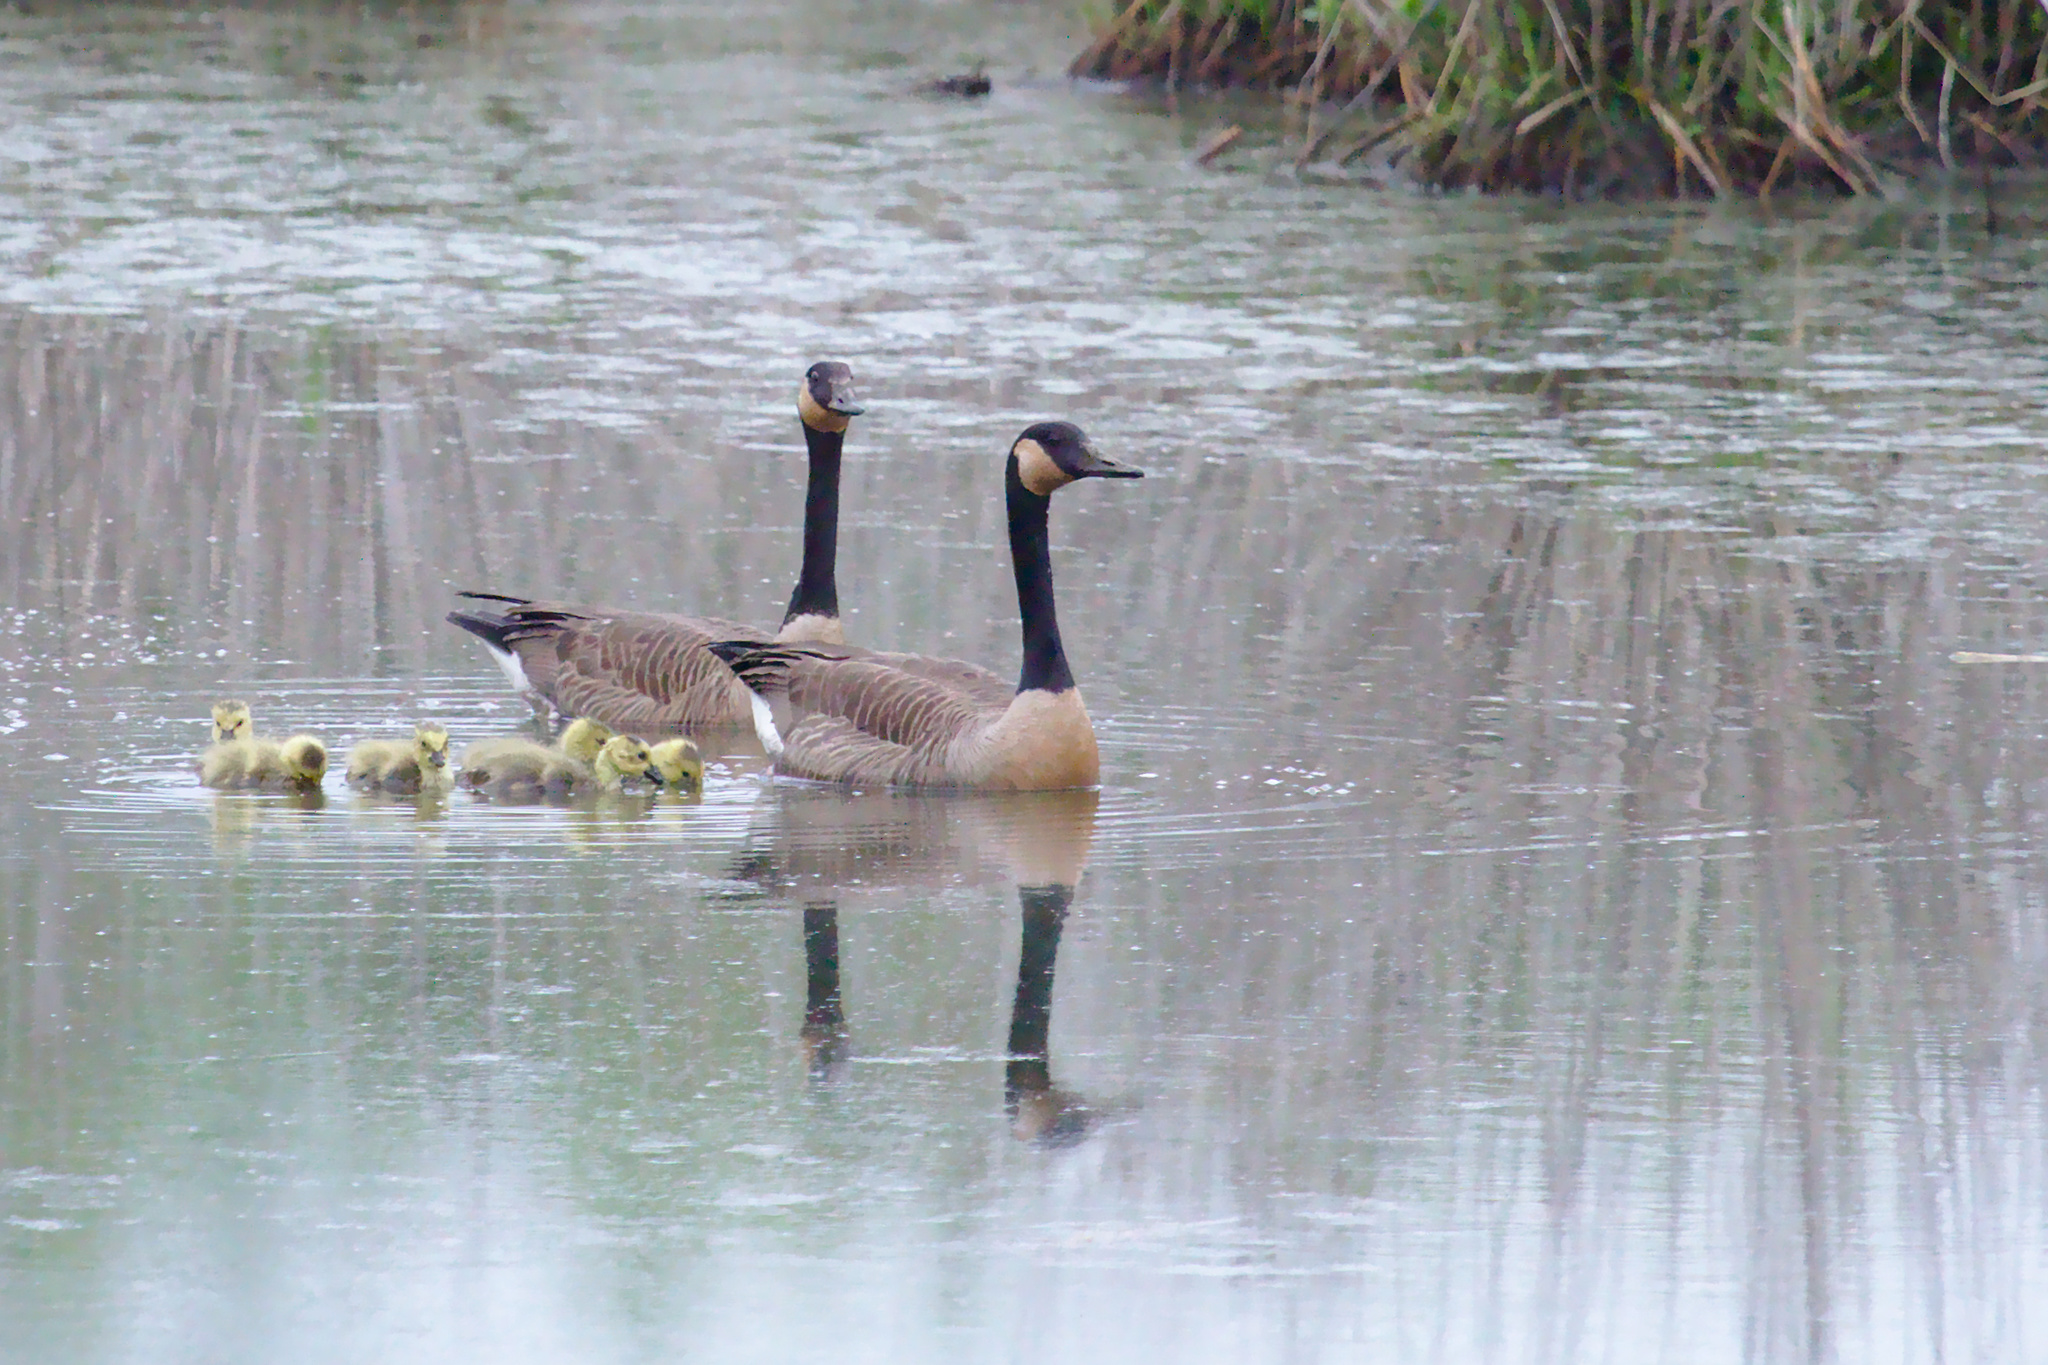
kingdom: Animalia
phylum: Chordata
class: Aves
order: Anseriformes
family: Anatidae
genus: Branta
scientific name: Branta canadensis
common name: Canada goose
